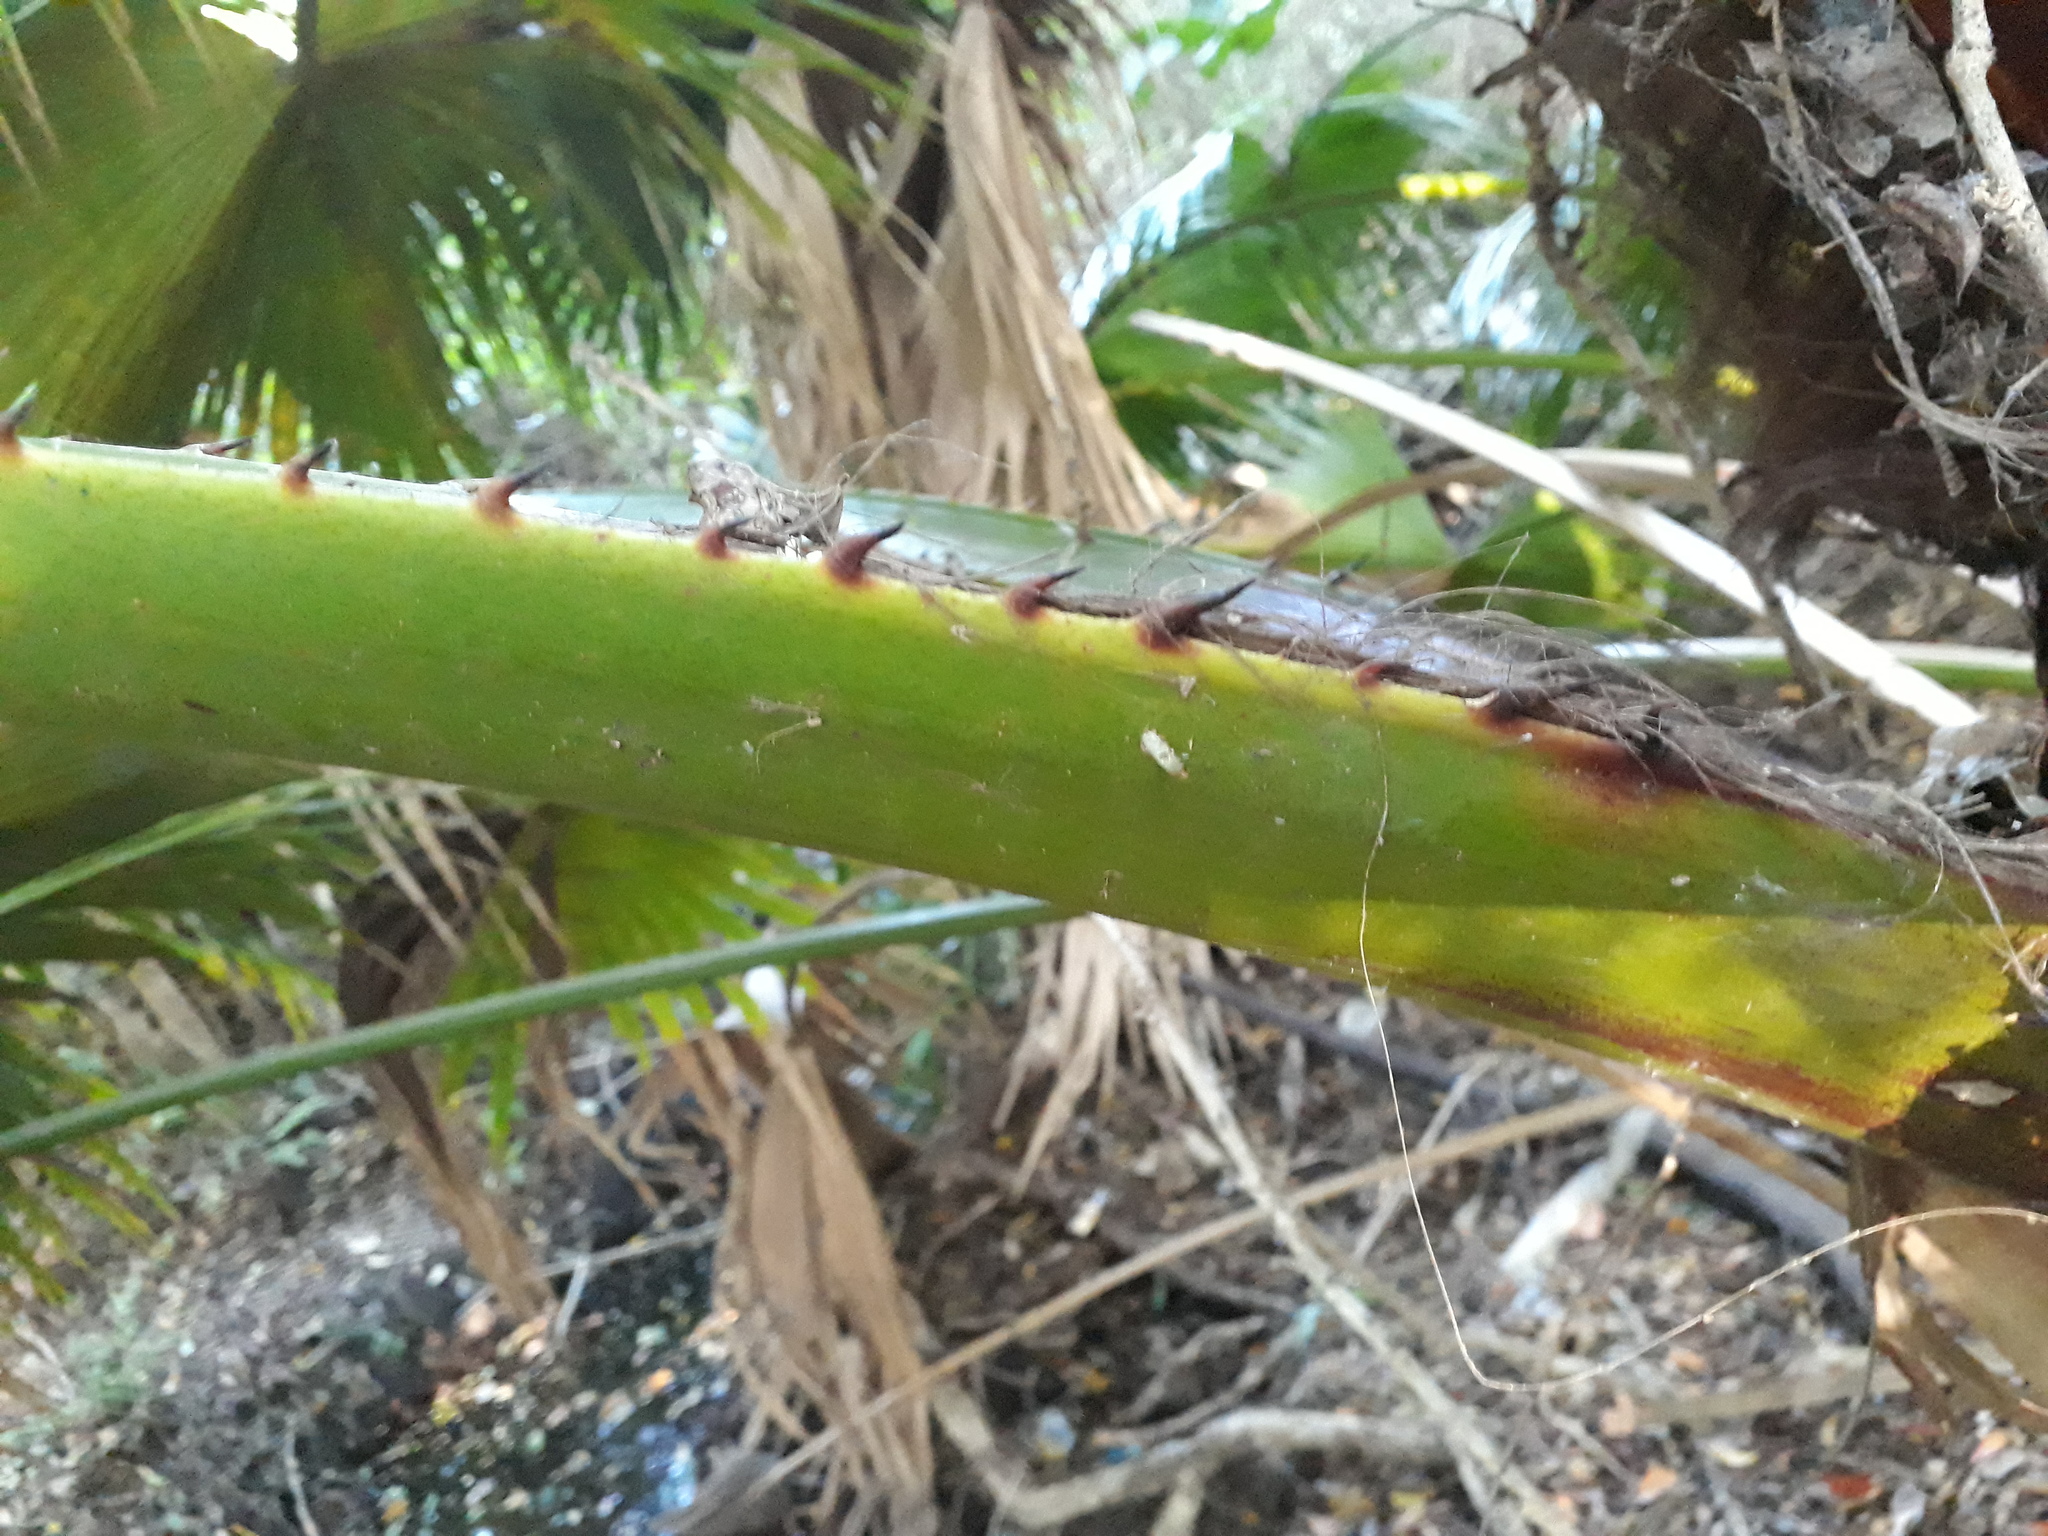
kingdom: Plantae
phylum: Tracheophyta
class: Liliopsida
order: Arecales
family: Arecaceae
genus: Livistona
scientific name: Livistona australis
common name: Cabbage fan palm
